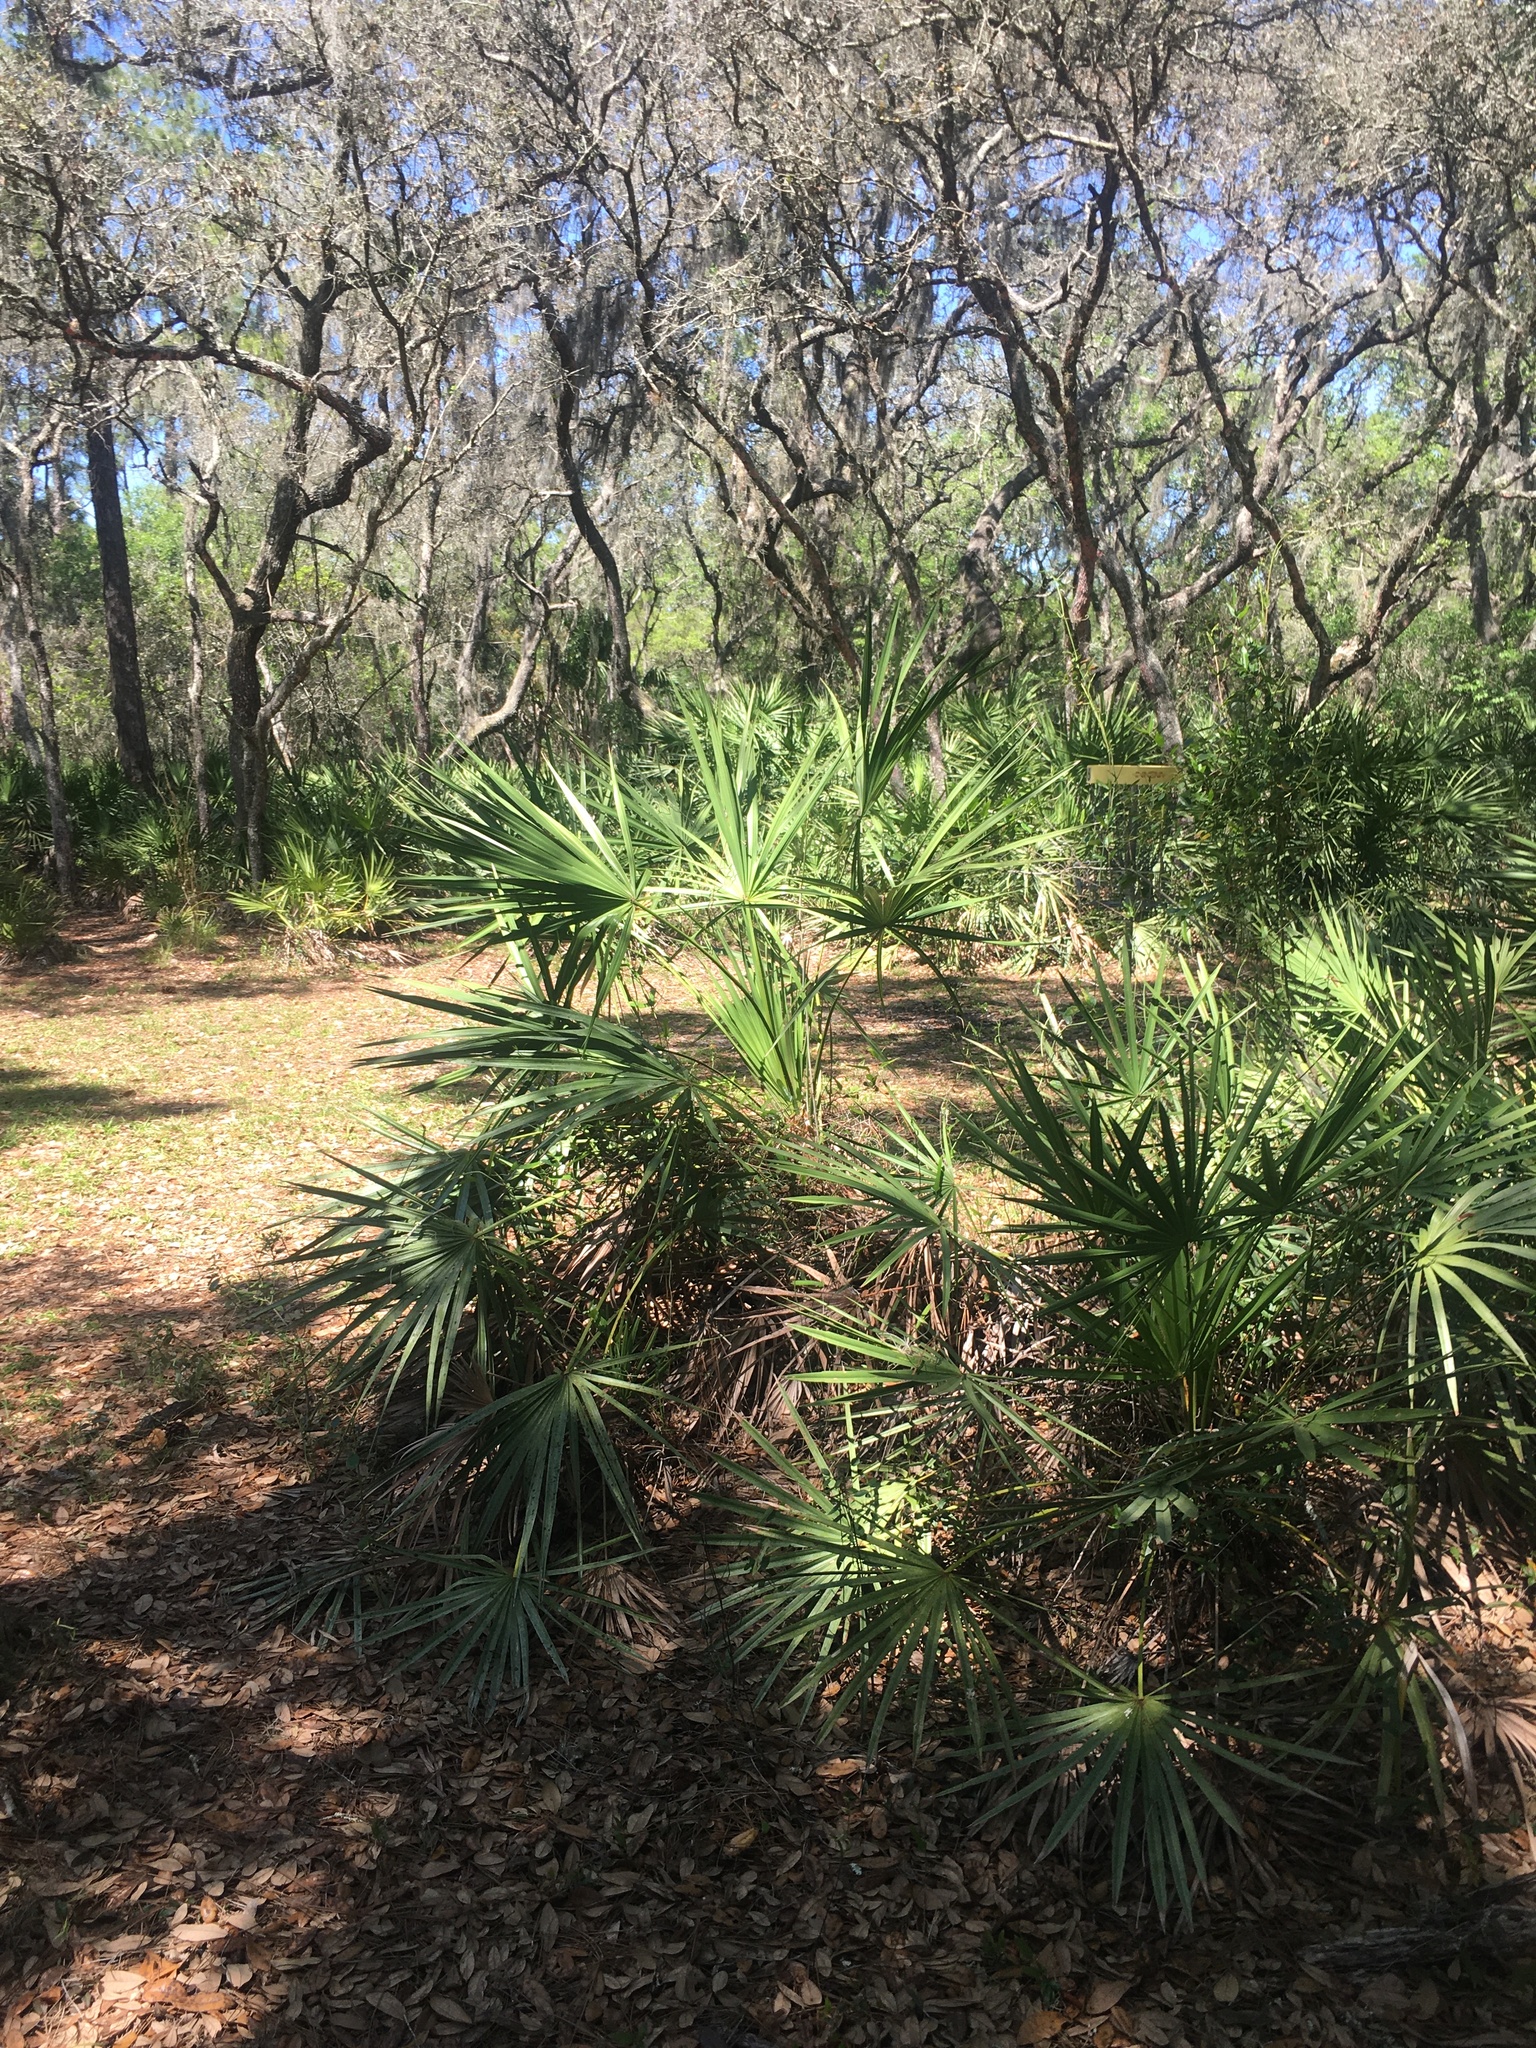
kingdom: Plantae
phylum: Tracheophyta
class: Liliopsida
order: Arecales
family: Arecaceae
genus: Serenoa
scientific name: Serenoa repens
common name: Saw-palmetto
